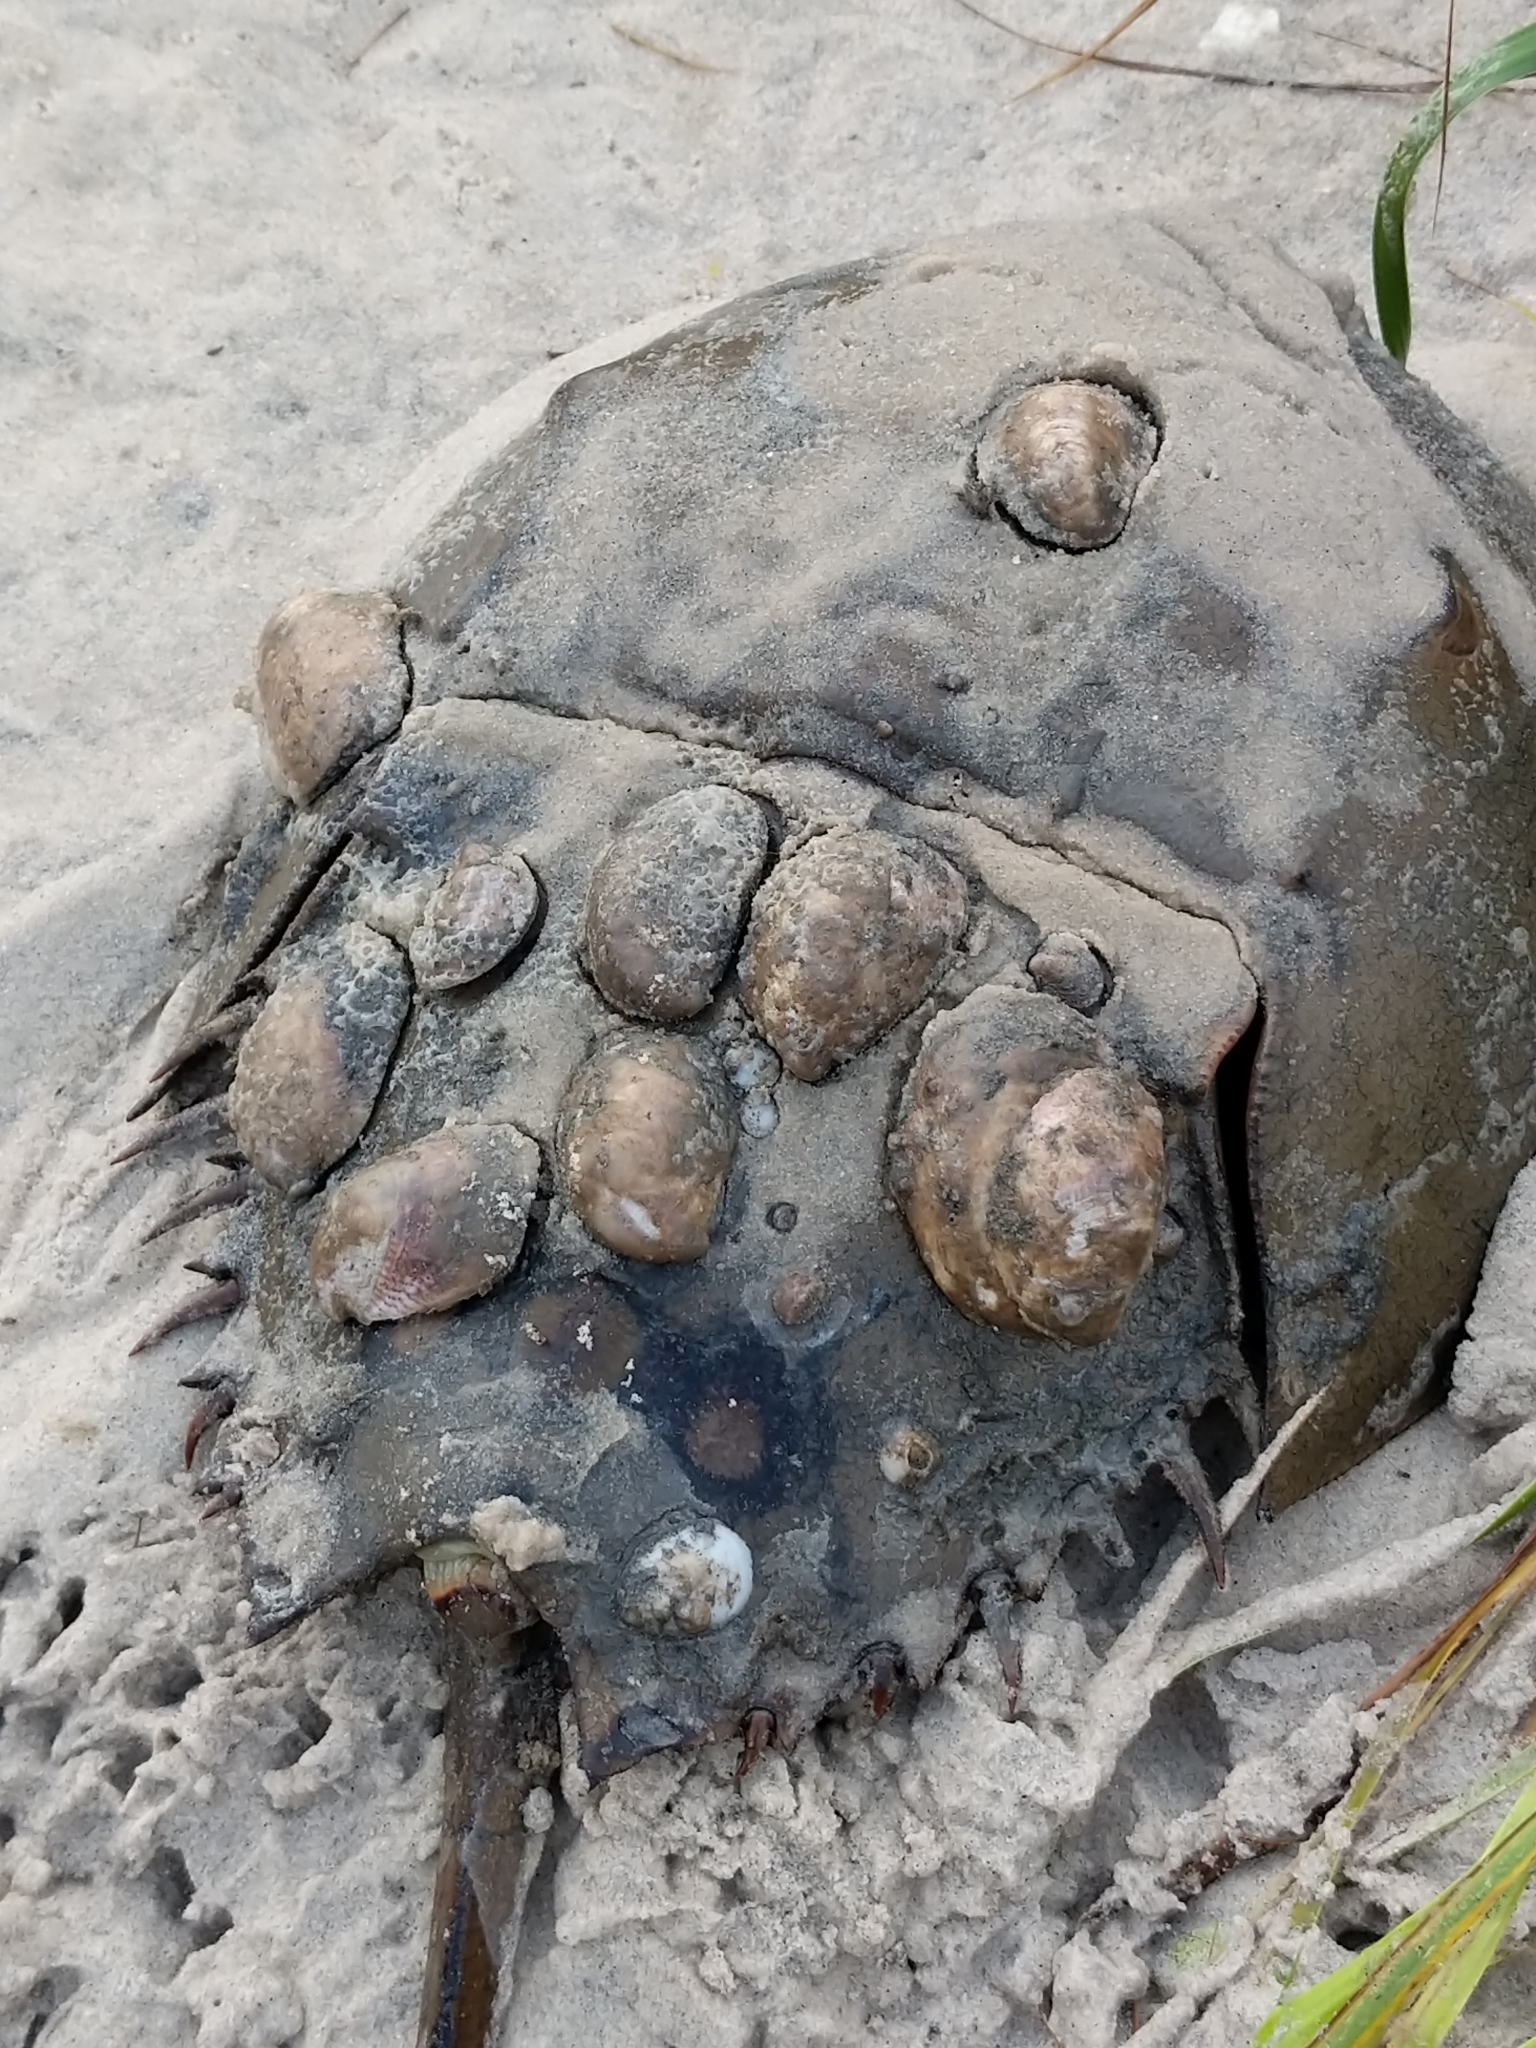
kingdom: Animalia
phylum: Arthropoda
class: Merostomata
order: Xiphosurida
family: Limulidae
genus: Limulus
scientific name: Limulus polyphemus
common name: Horseshoe crab
